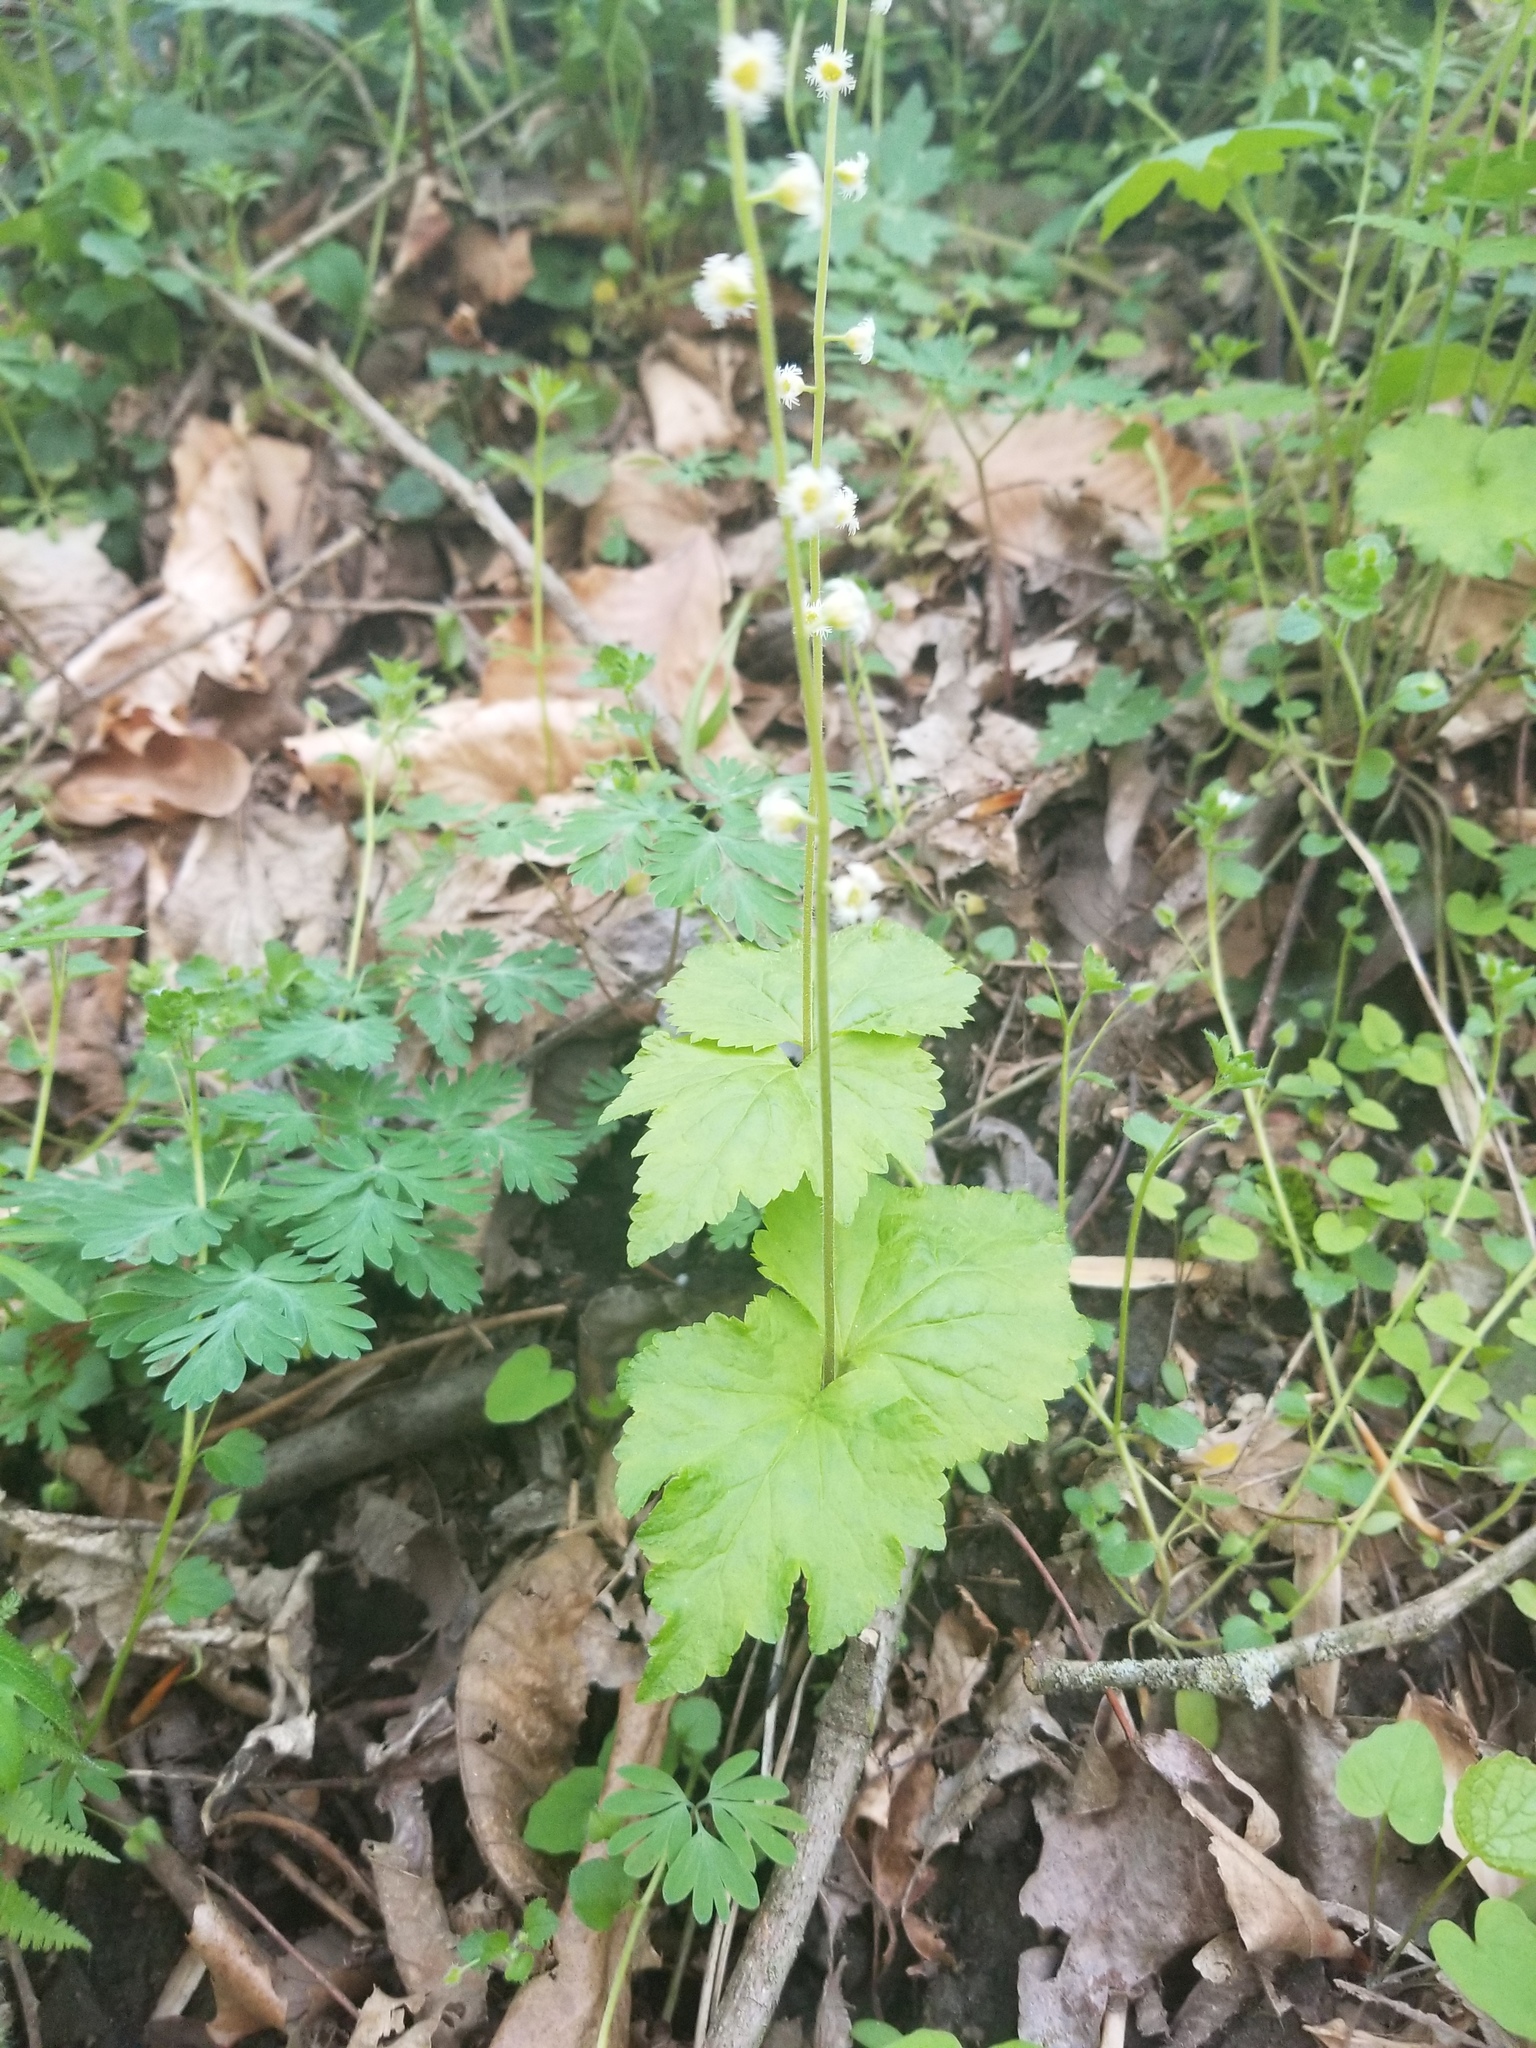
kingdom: Plantae
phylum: Tracheophyta
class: Magnoliopsida
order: Saxifragales
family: Saxifragaceae
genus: Mitella
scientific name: Mitella diphylla
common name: Coolwort
